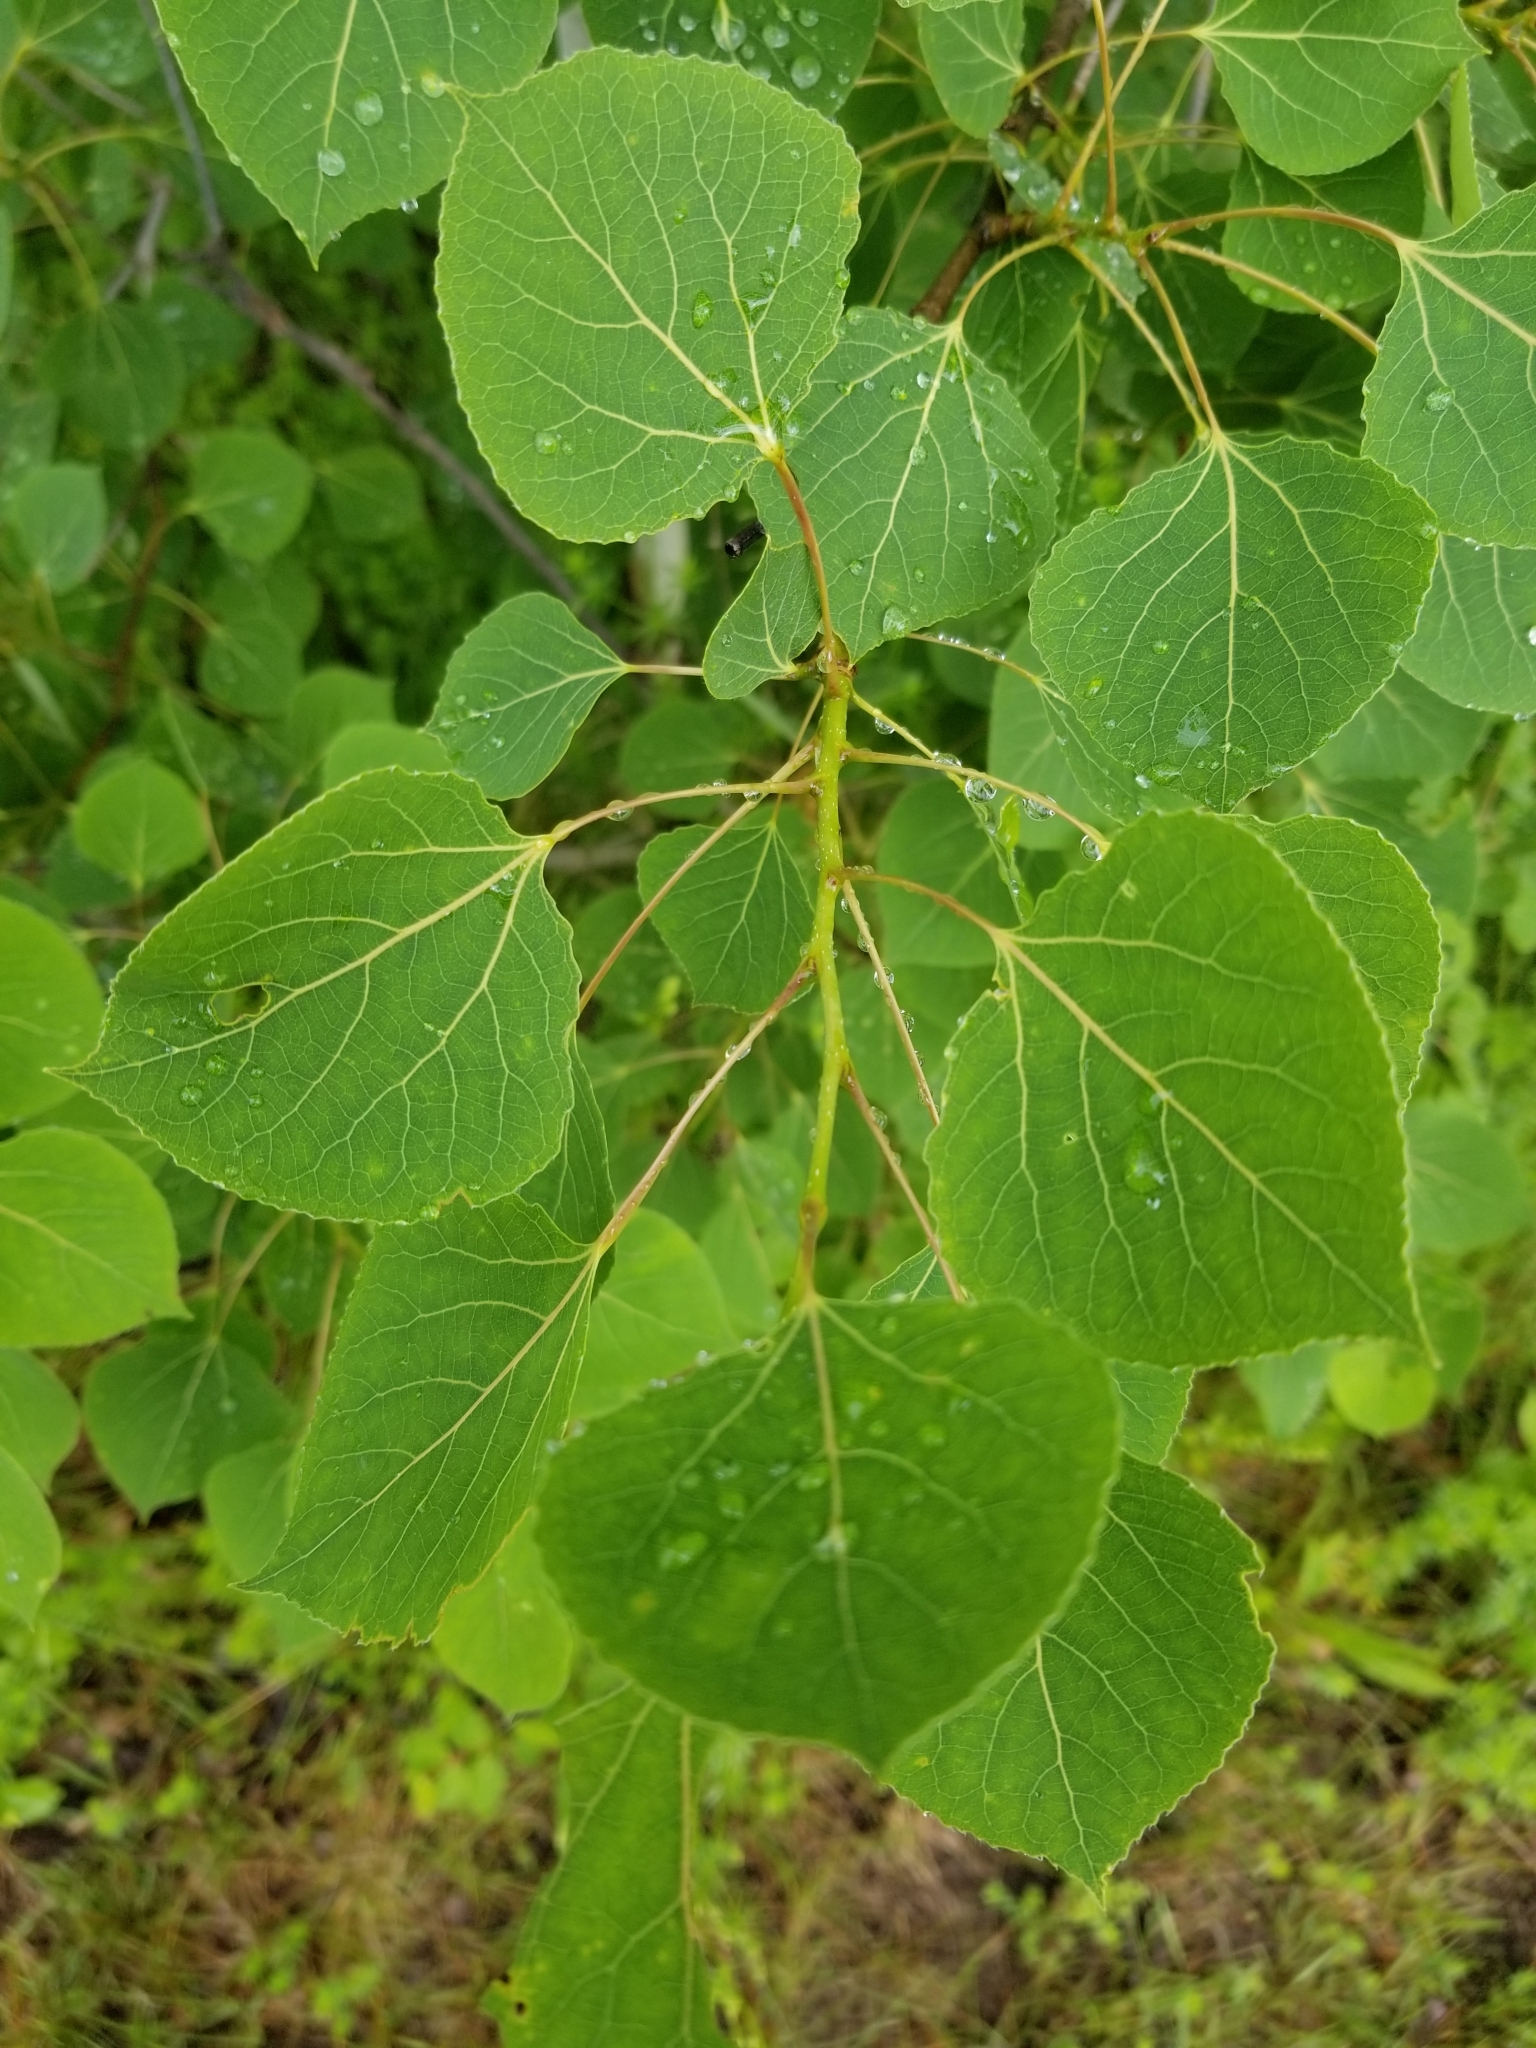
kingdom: Plantae
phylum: Tracheophyta
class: Magnoliopsida
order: Malpighiales
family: Salicaceae
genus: Populus
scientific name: Populus tremuloides
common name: Quaking aspen
